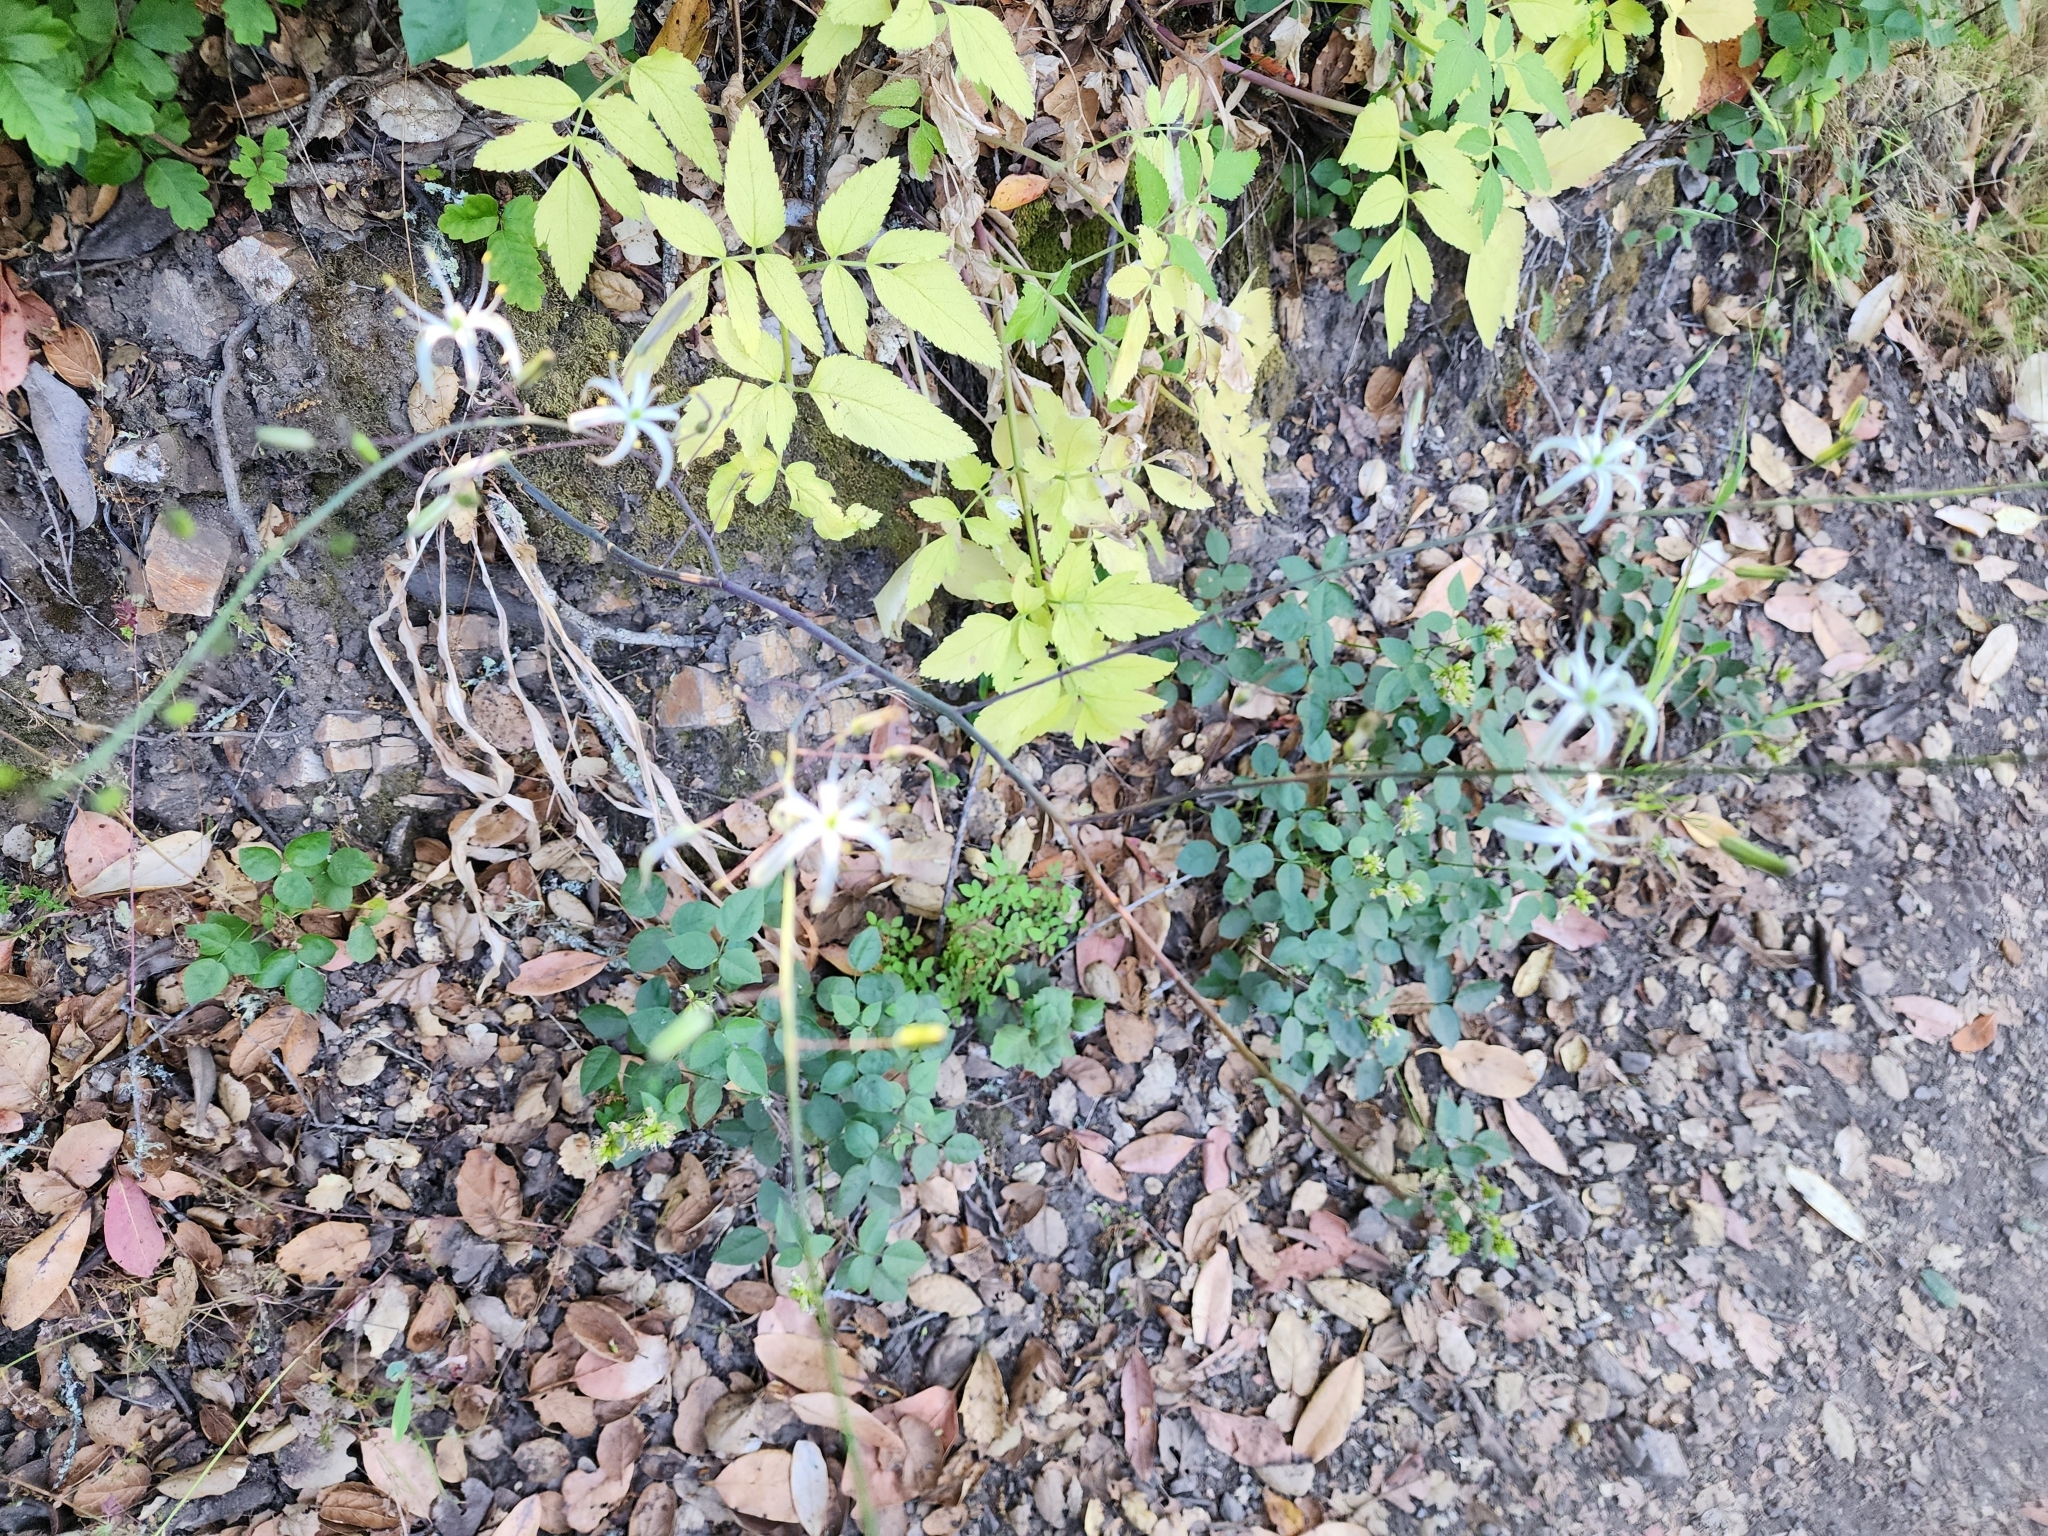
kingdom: Plantae
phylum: Tracheophyta
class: Liliopsida
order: Asparagales
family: Asparagaceae
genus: Chlorogalum
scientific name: Chlorogalum pomeridianum
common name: Amole
